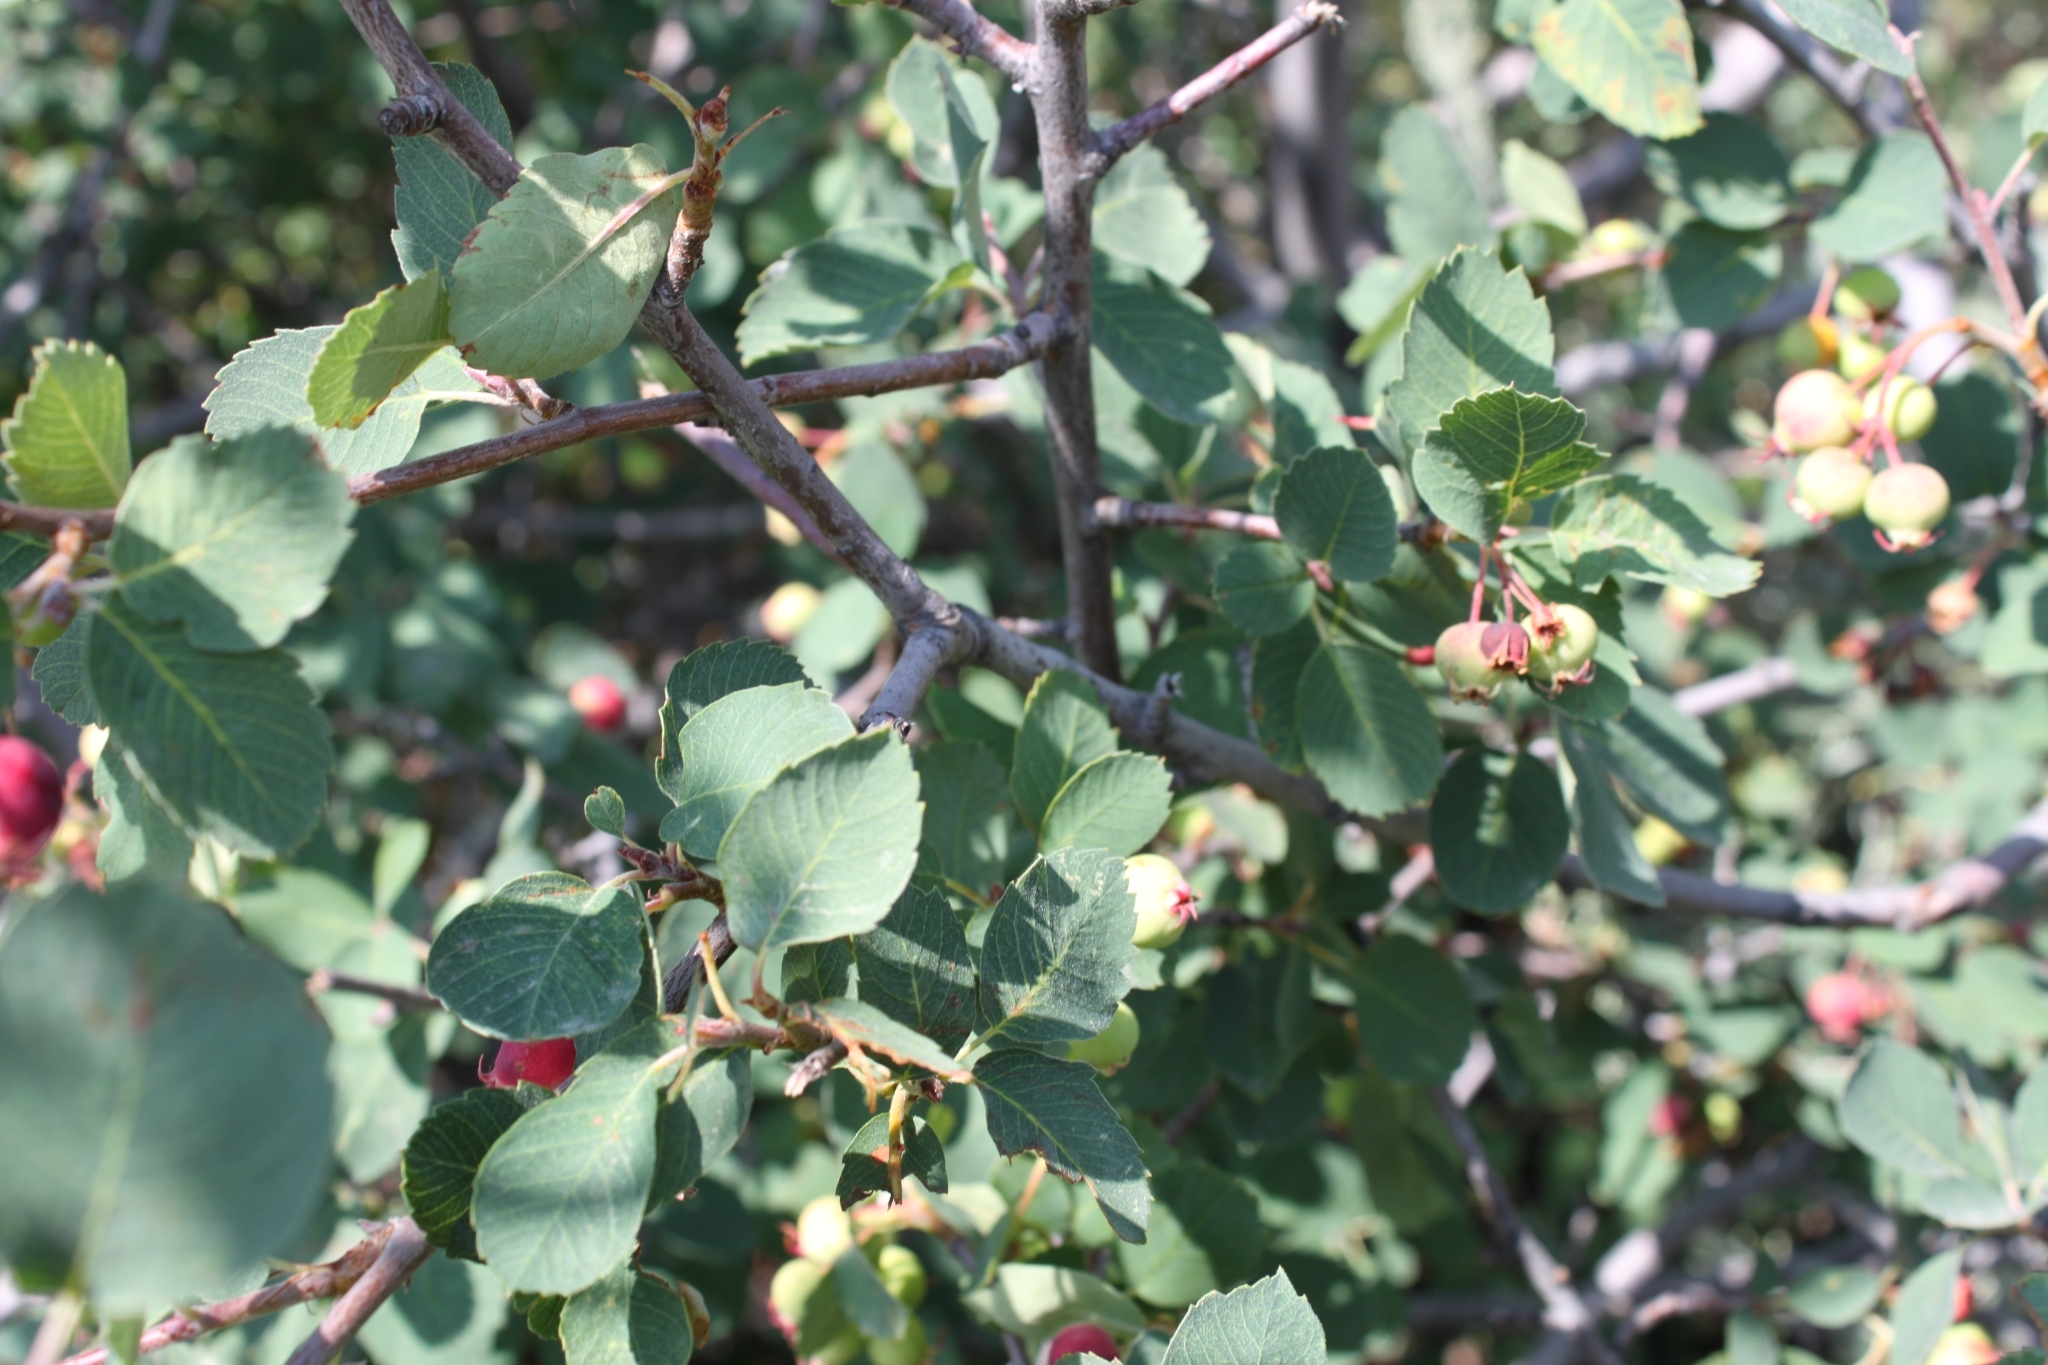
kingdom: Plantae
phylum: Tracheophyta
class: Magnoliopsida
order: Rosales
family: Rosaceae
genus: Amelanchier
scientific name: Amelanchier utahensis
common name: Utah serviceberry
